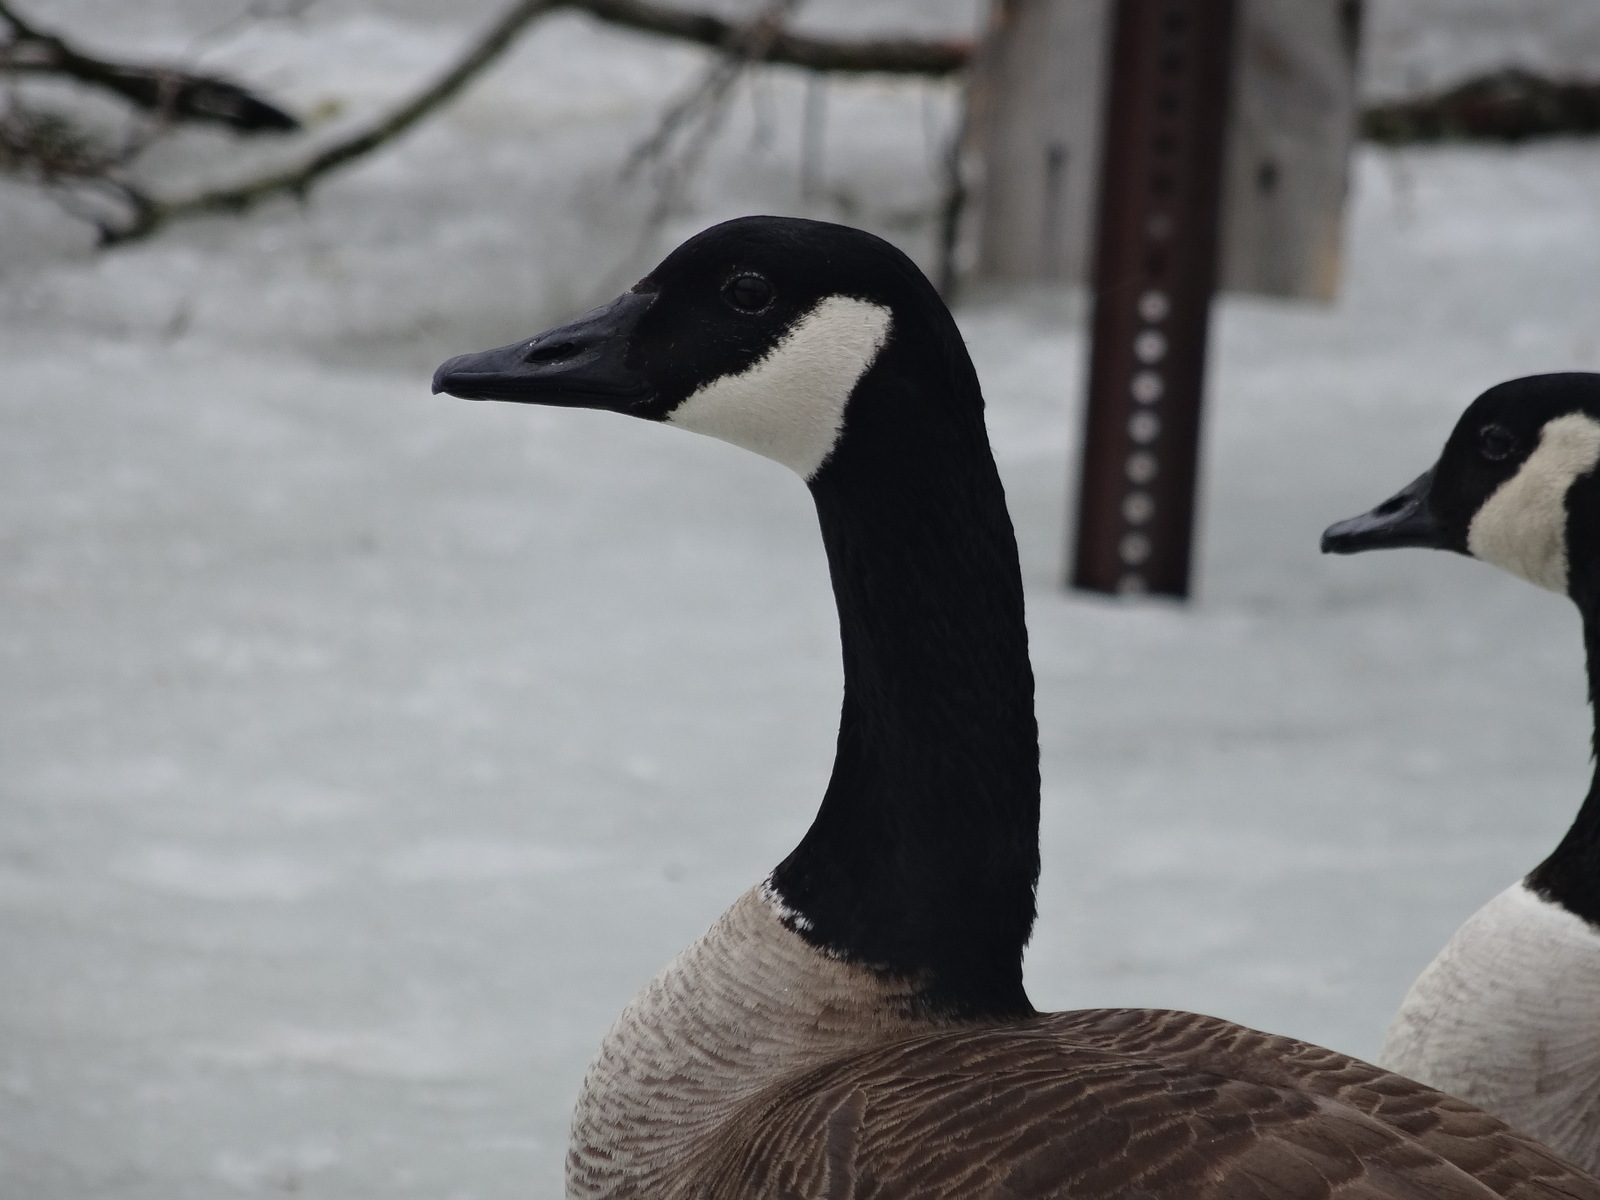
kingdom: Animalia
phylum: Chordata
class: Aves
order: Anseriformes
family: Anatidae
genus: Branta
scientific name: Branta canadensis
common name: Canada goose
